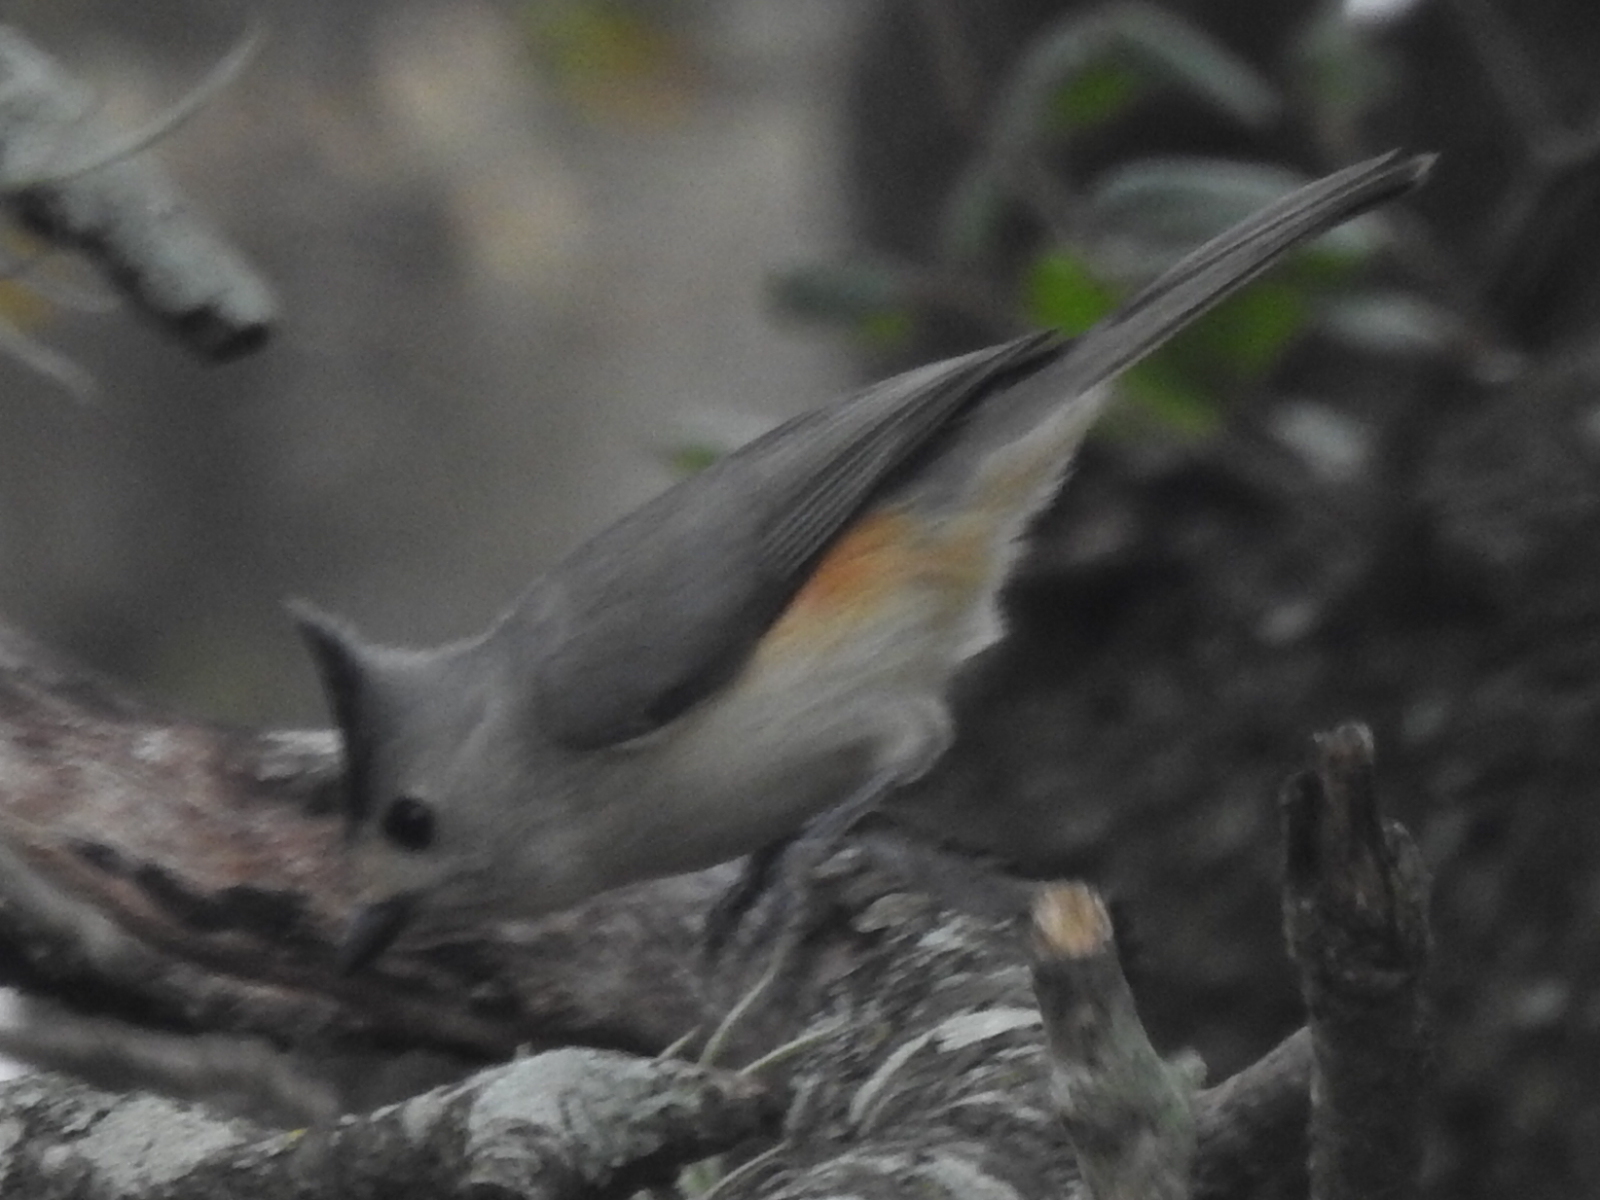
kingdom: Animalia
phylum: Chordata
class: Aves
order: Passeriformes
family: Paridae
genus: Baeolophus
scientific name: Baeolophus atricristatus
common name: Black-crested titmouse
